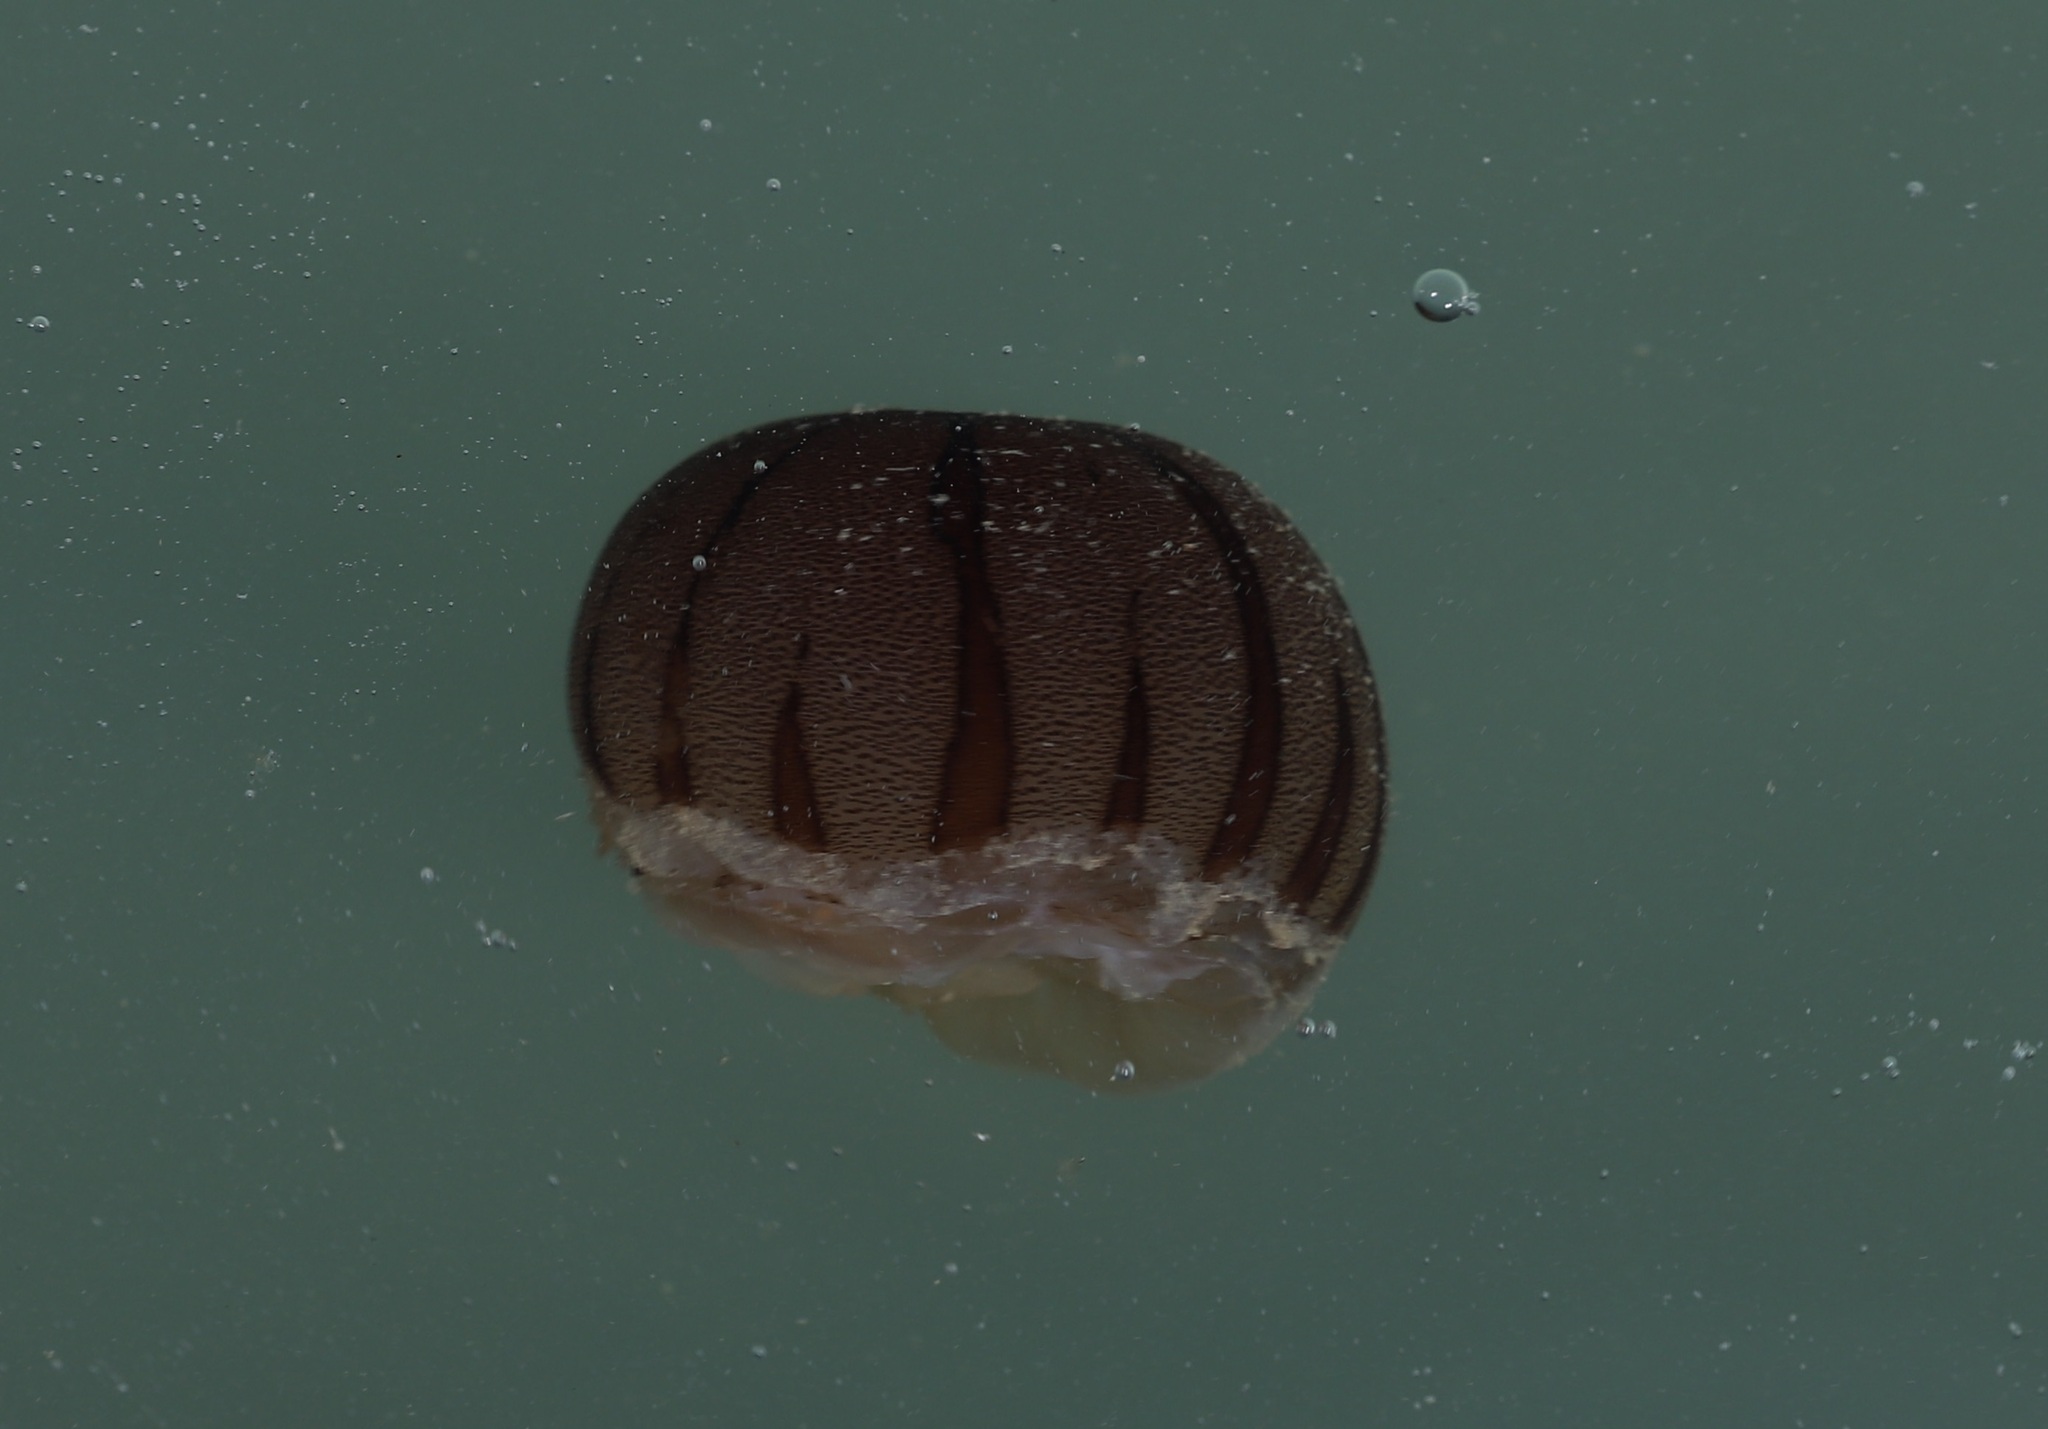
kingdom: Animalia
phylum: Cnidaria
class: Scyphozoa
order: Semaeostomeae
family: Pelagiidae
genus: Chrysaora
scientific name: Chrysaora pacifica
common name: Sea nettle
